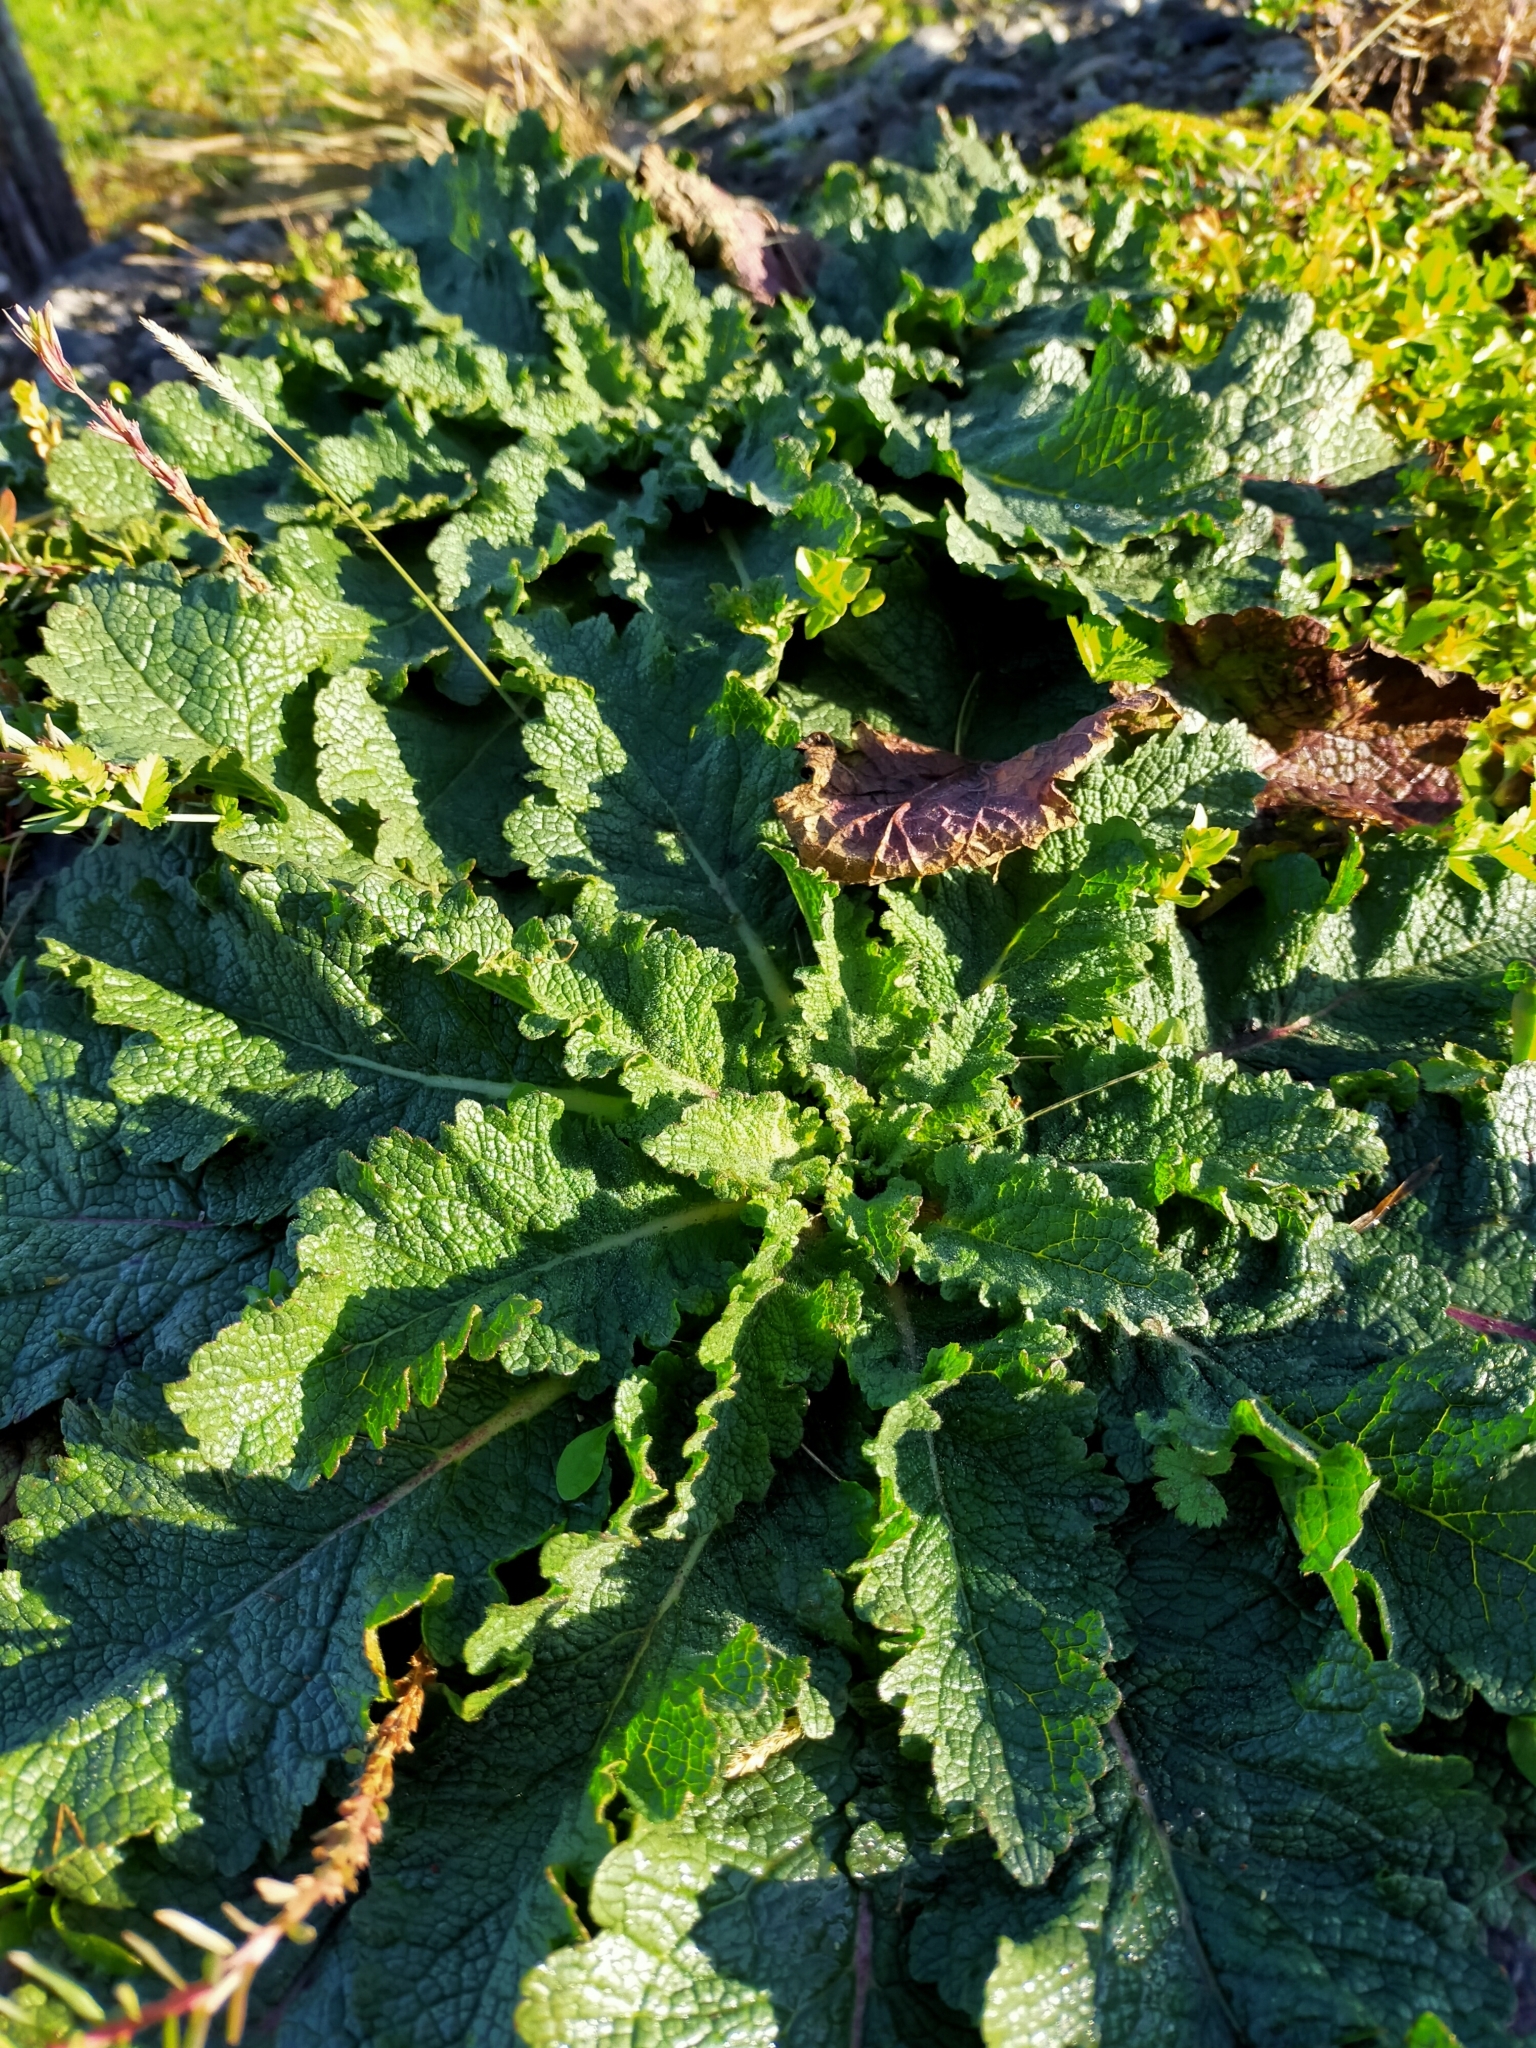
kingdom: Plantae
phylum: Tracheophyta
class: Magnoliopsida
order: Lamiales
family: Scrophulariaceae
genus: Verbascum
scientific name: Verbascum virgatum
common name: Twiggy mullein
